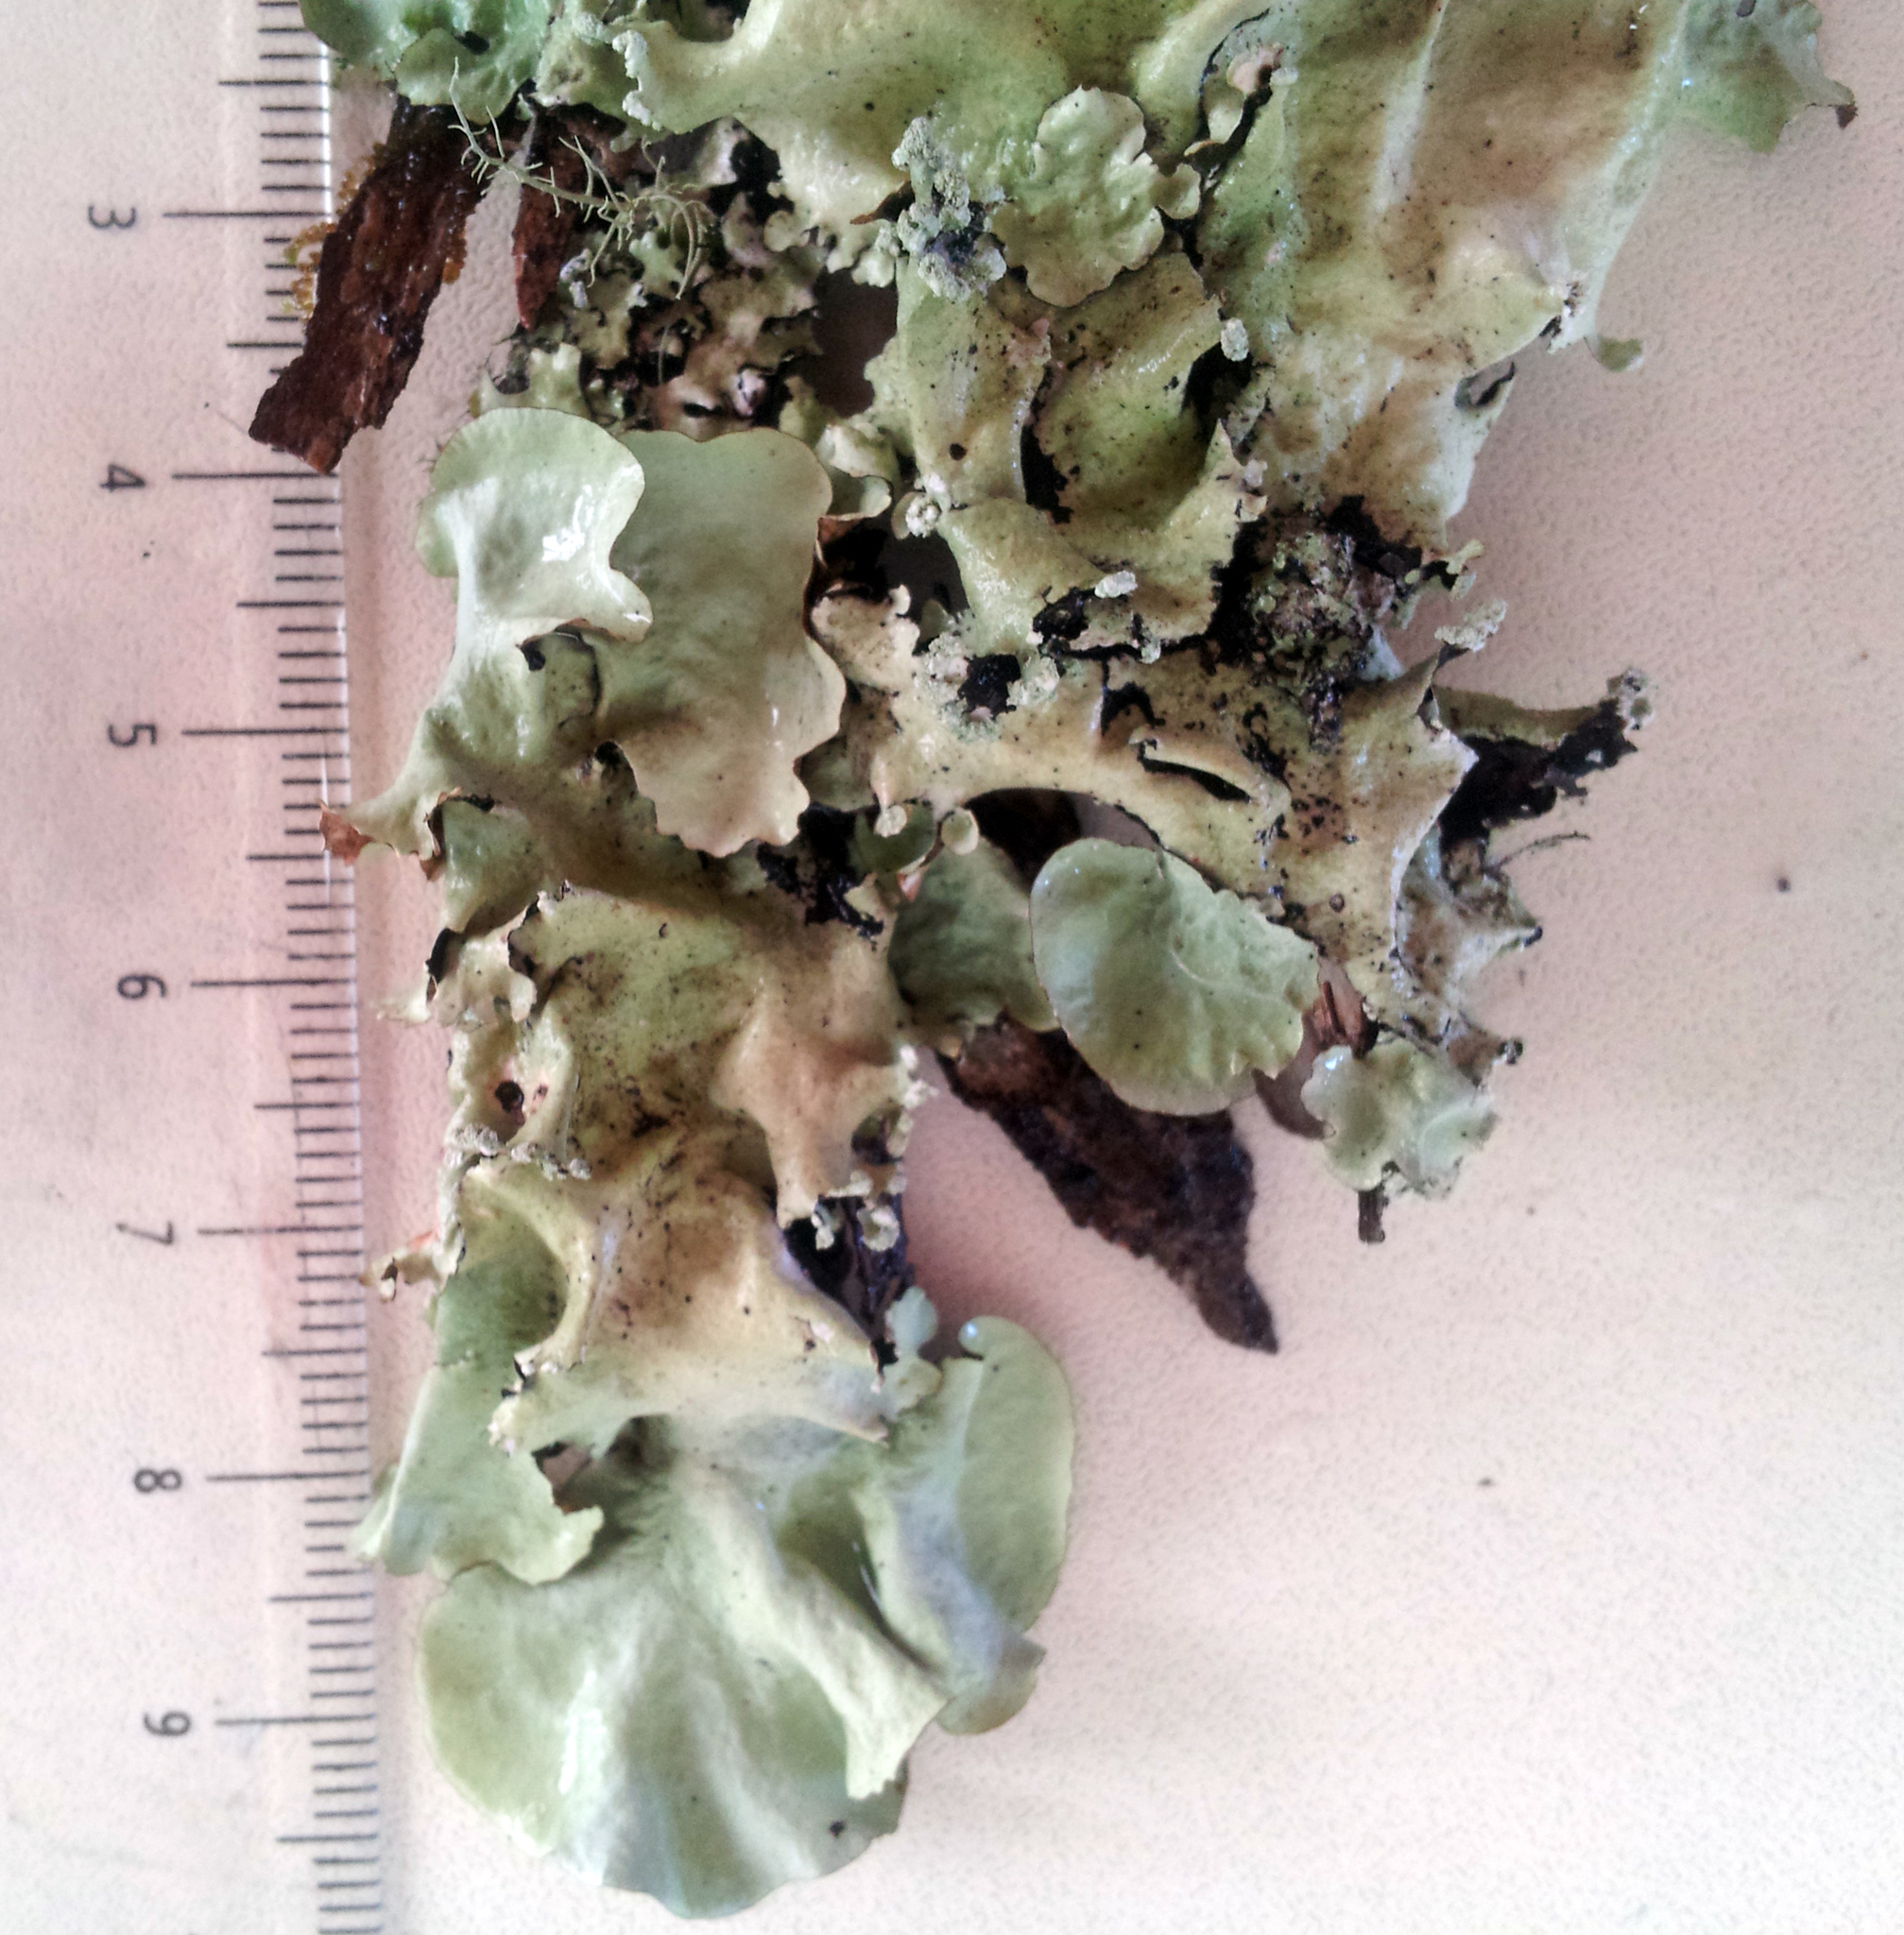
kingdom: Fungi
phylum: Ascomycota
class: Lecanoromycetes
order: Lecanorales
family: Parmeliaceae
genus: Parmotrema
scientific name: Parmotrema robustum
